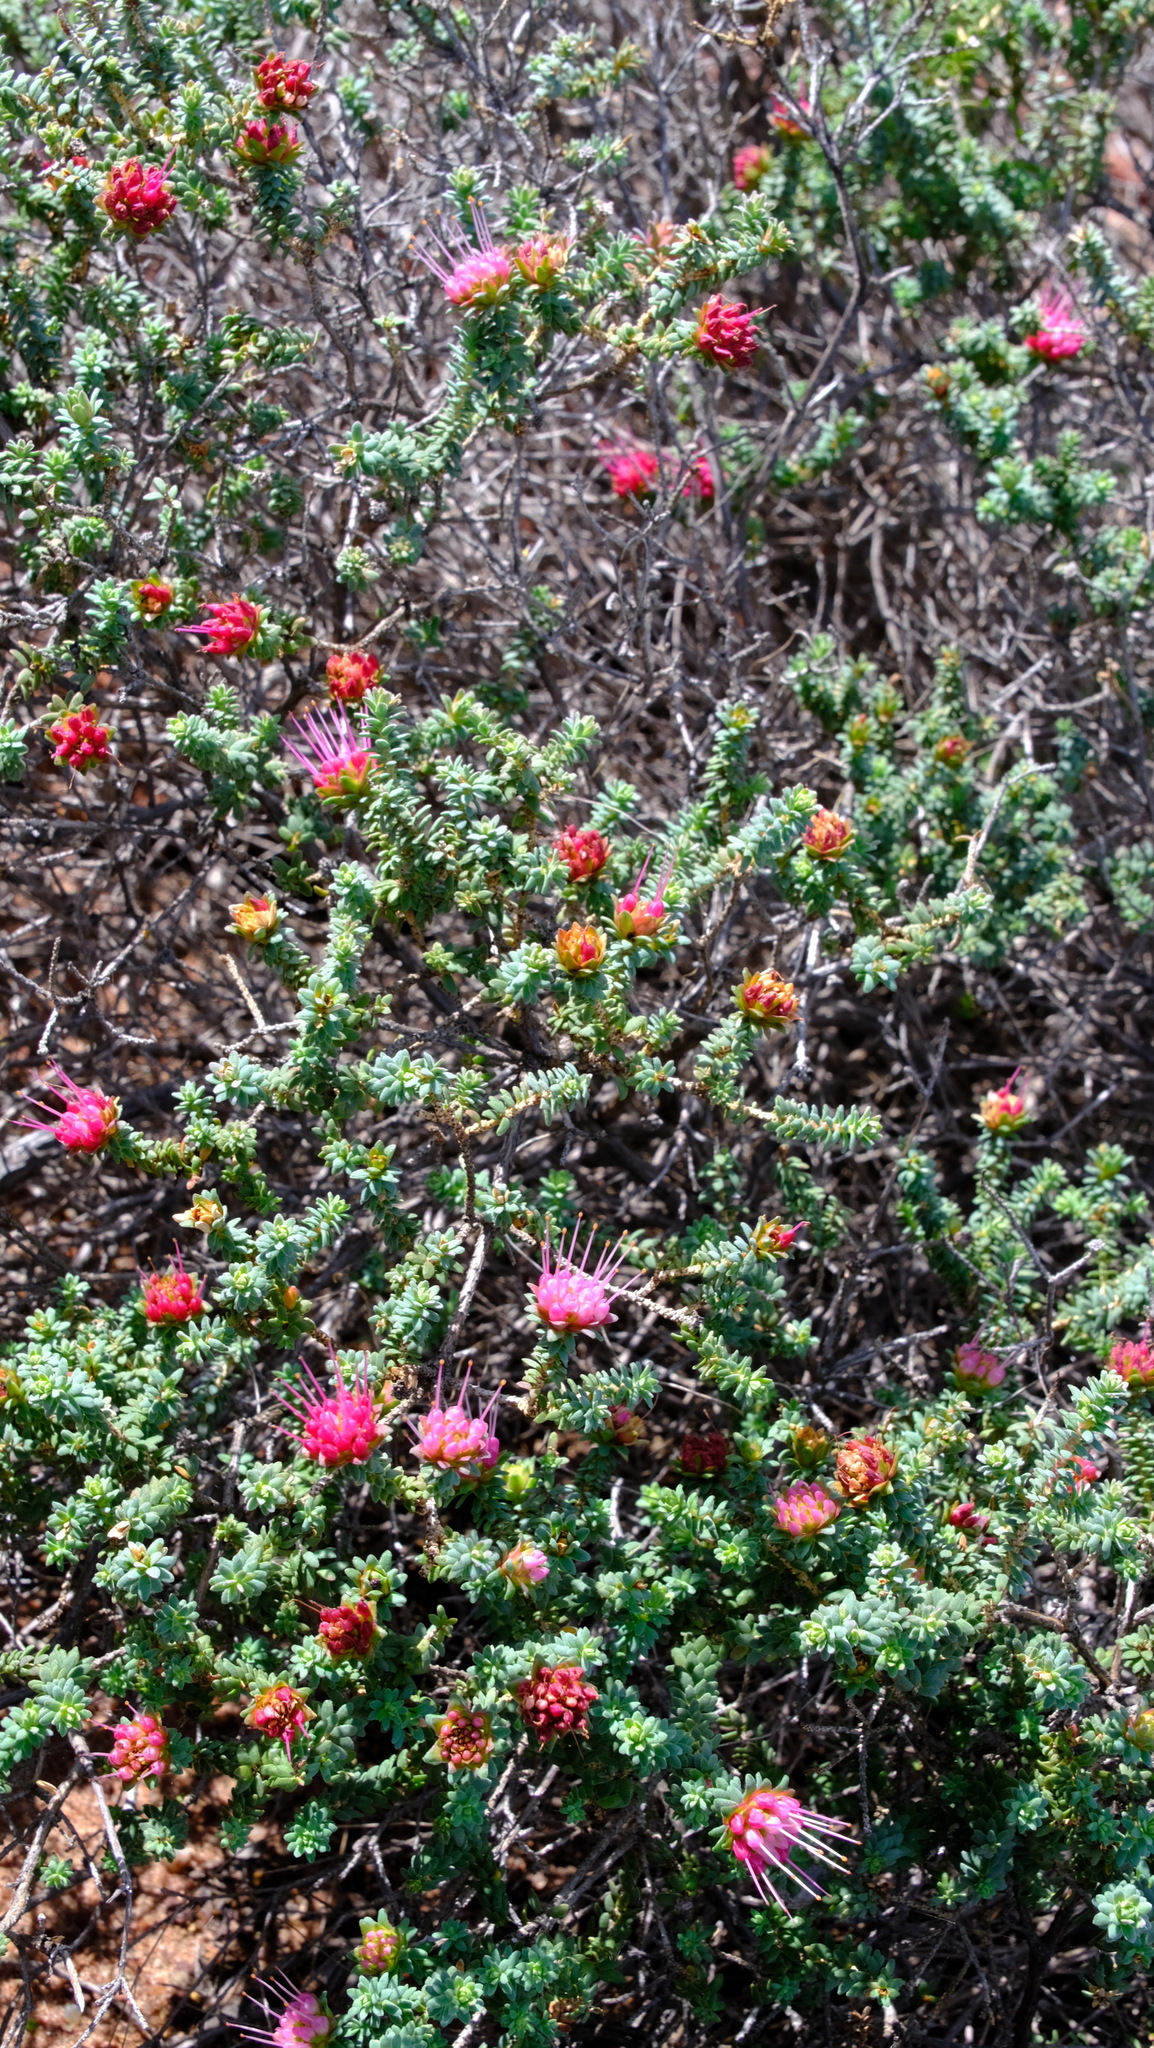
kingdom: Plantae
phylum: Tracheophyta
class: Magnoliopsida
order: Myrtales
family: Myrtaceae
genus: Darwinia
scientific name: Darwinia oldfieldii
